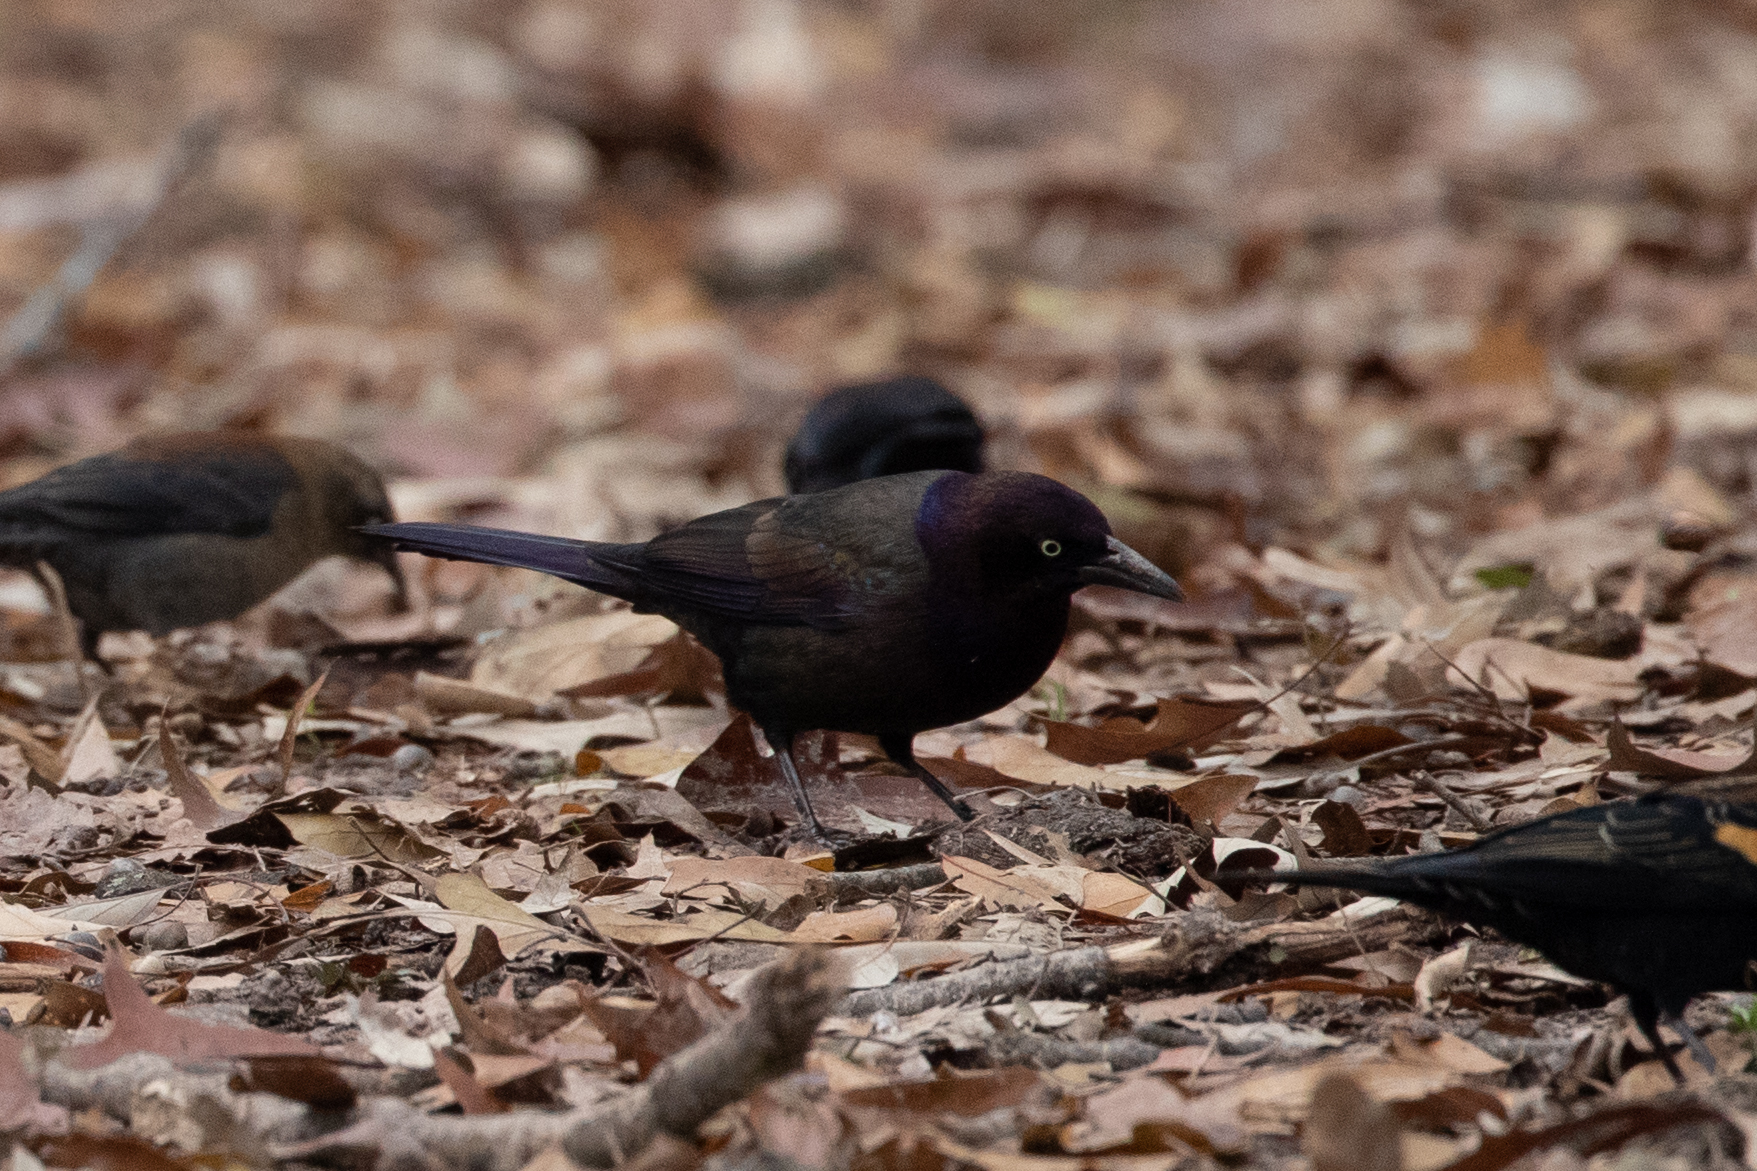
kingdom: Animalia
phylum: Chordata
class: Aves
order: Passeriformes
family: Icteridae
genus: Quiscalus
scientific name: Quiscalus quiscula
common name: Common grackle
